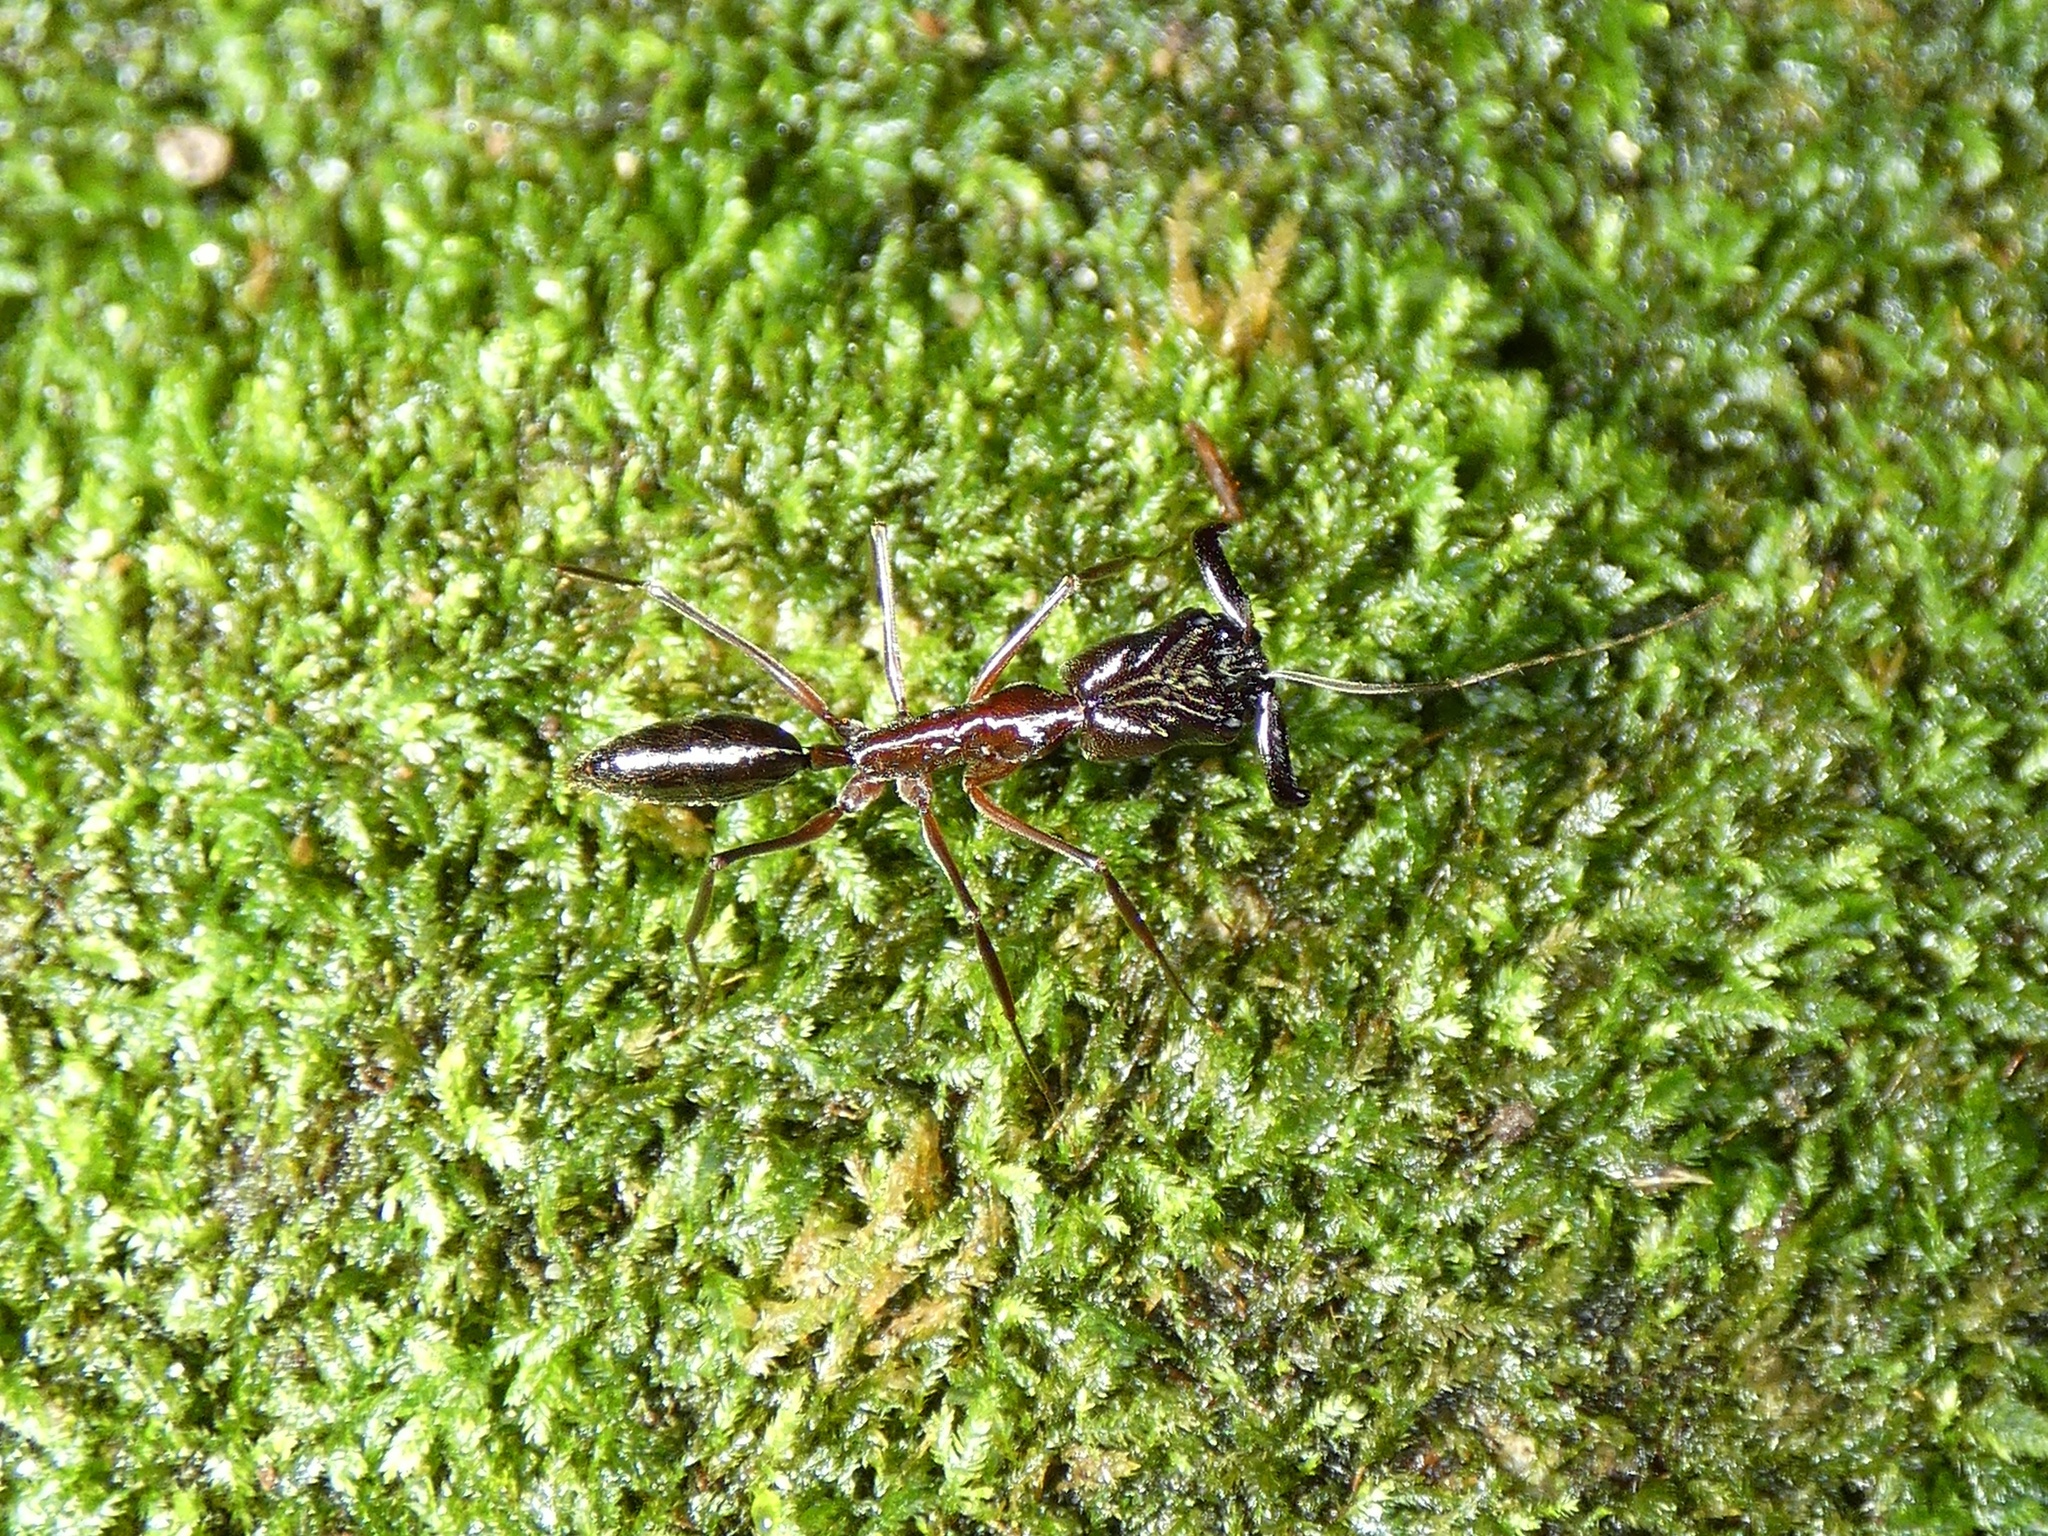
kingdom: Animalia
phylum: Arthropoda
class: Insecta
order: Hymenoptera
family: Formicidae
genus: Odontomachus
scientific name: Odontomachus chelifer
